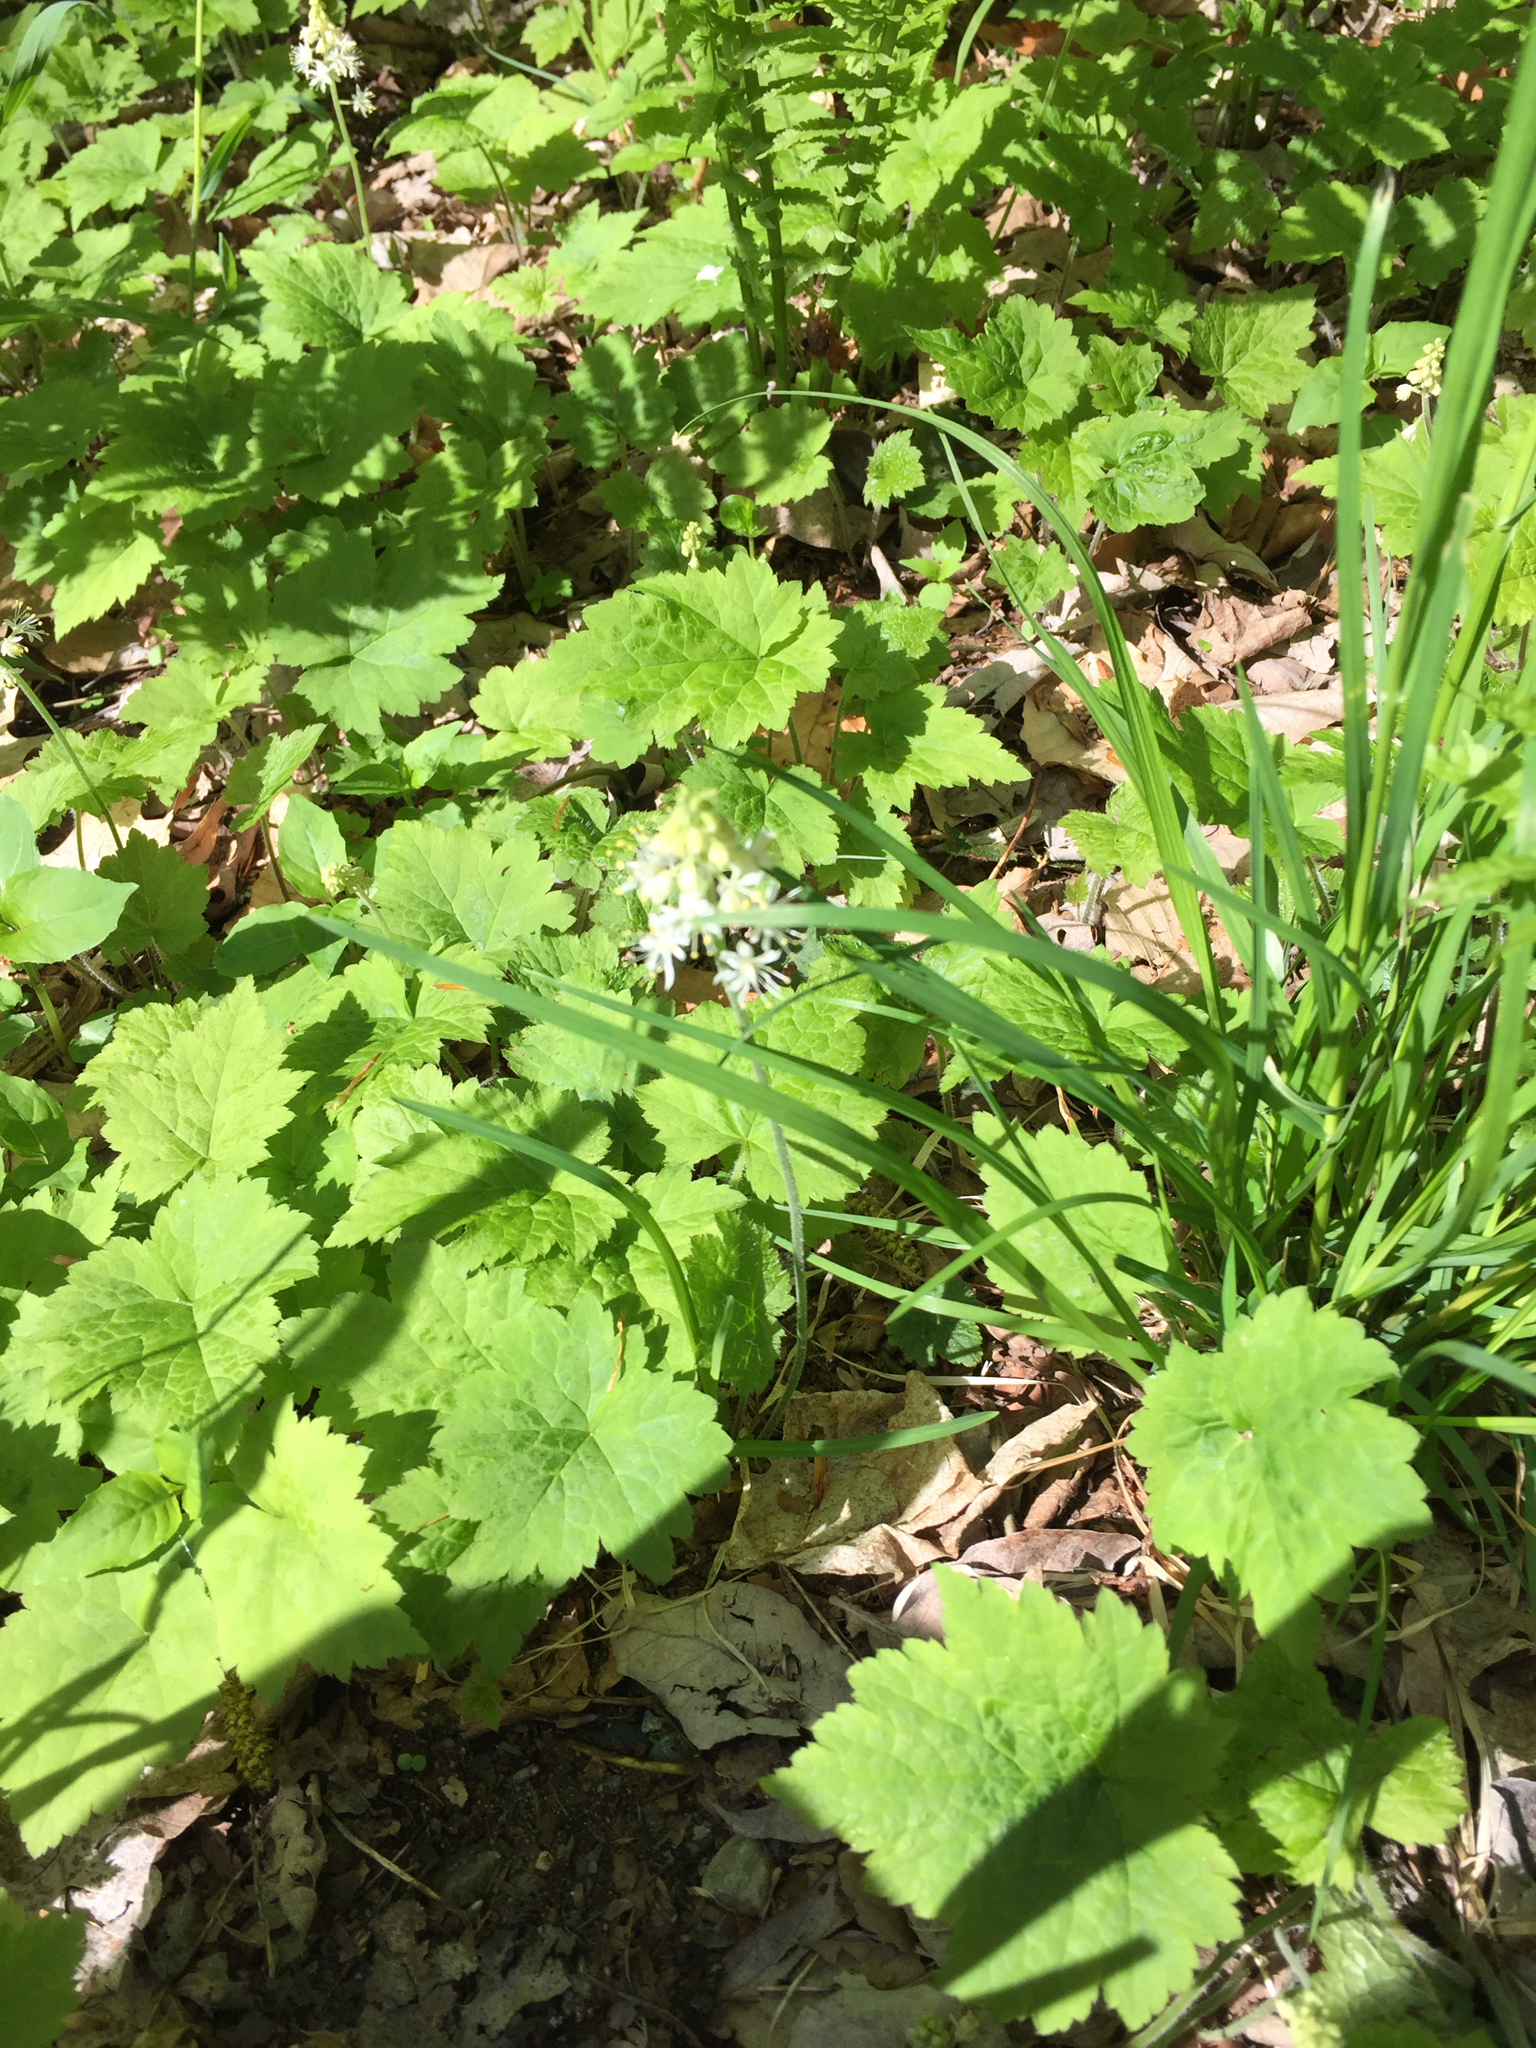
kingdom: Plantae
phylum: Tracheophyta
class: Magnoliopsida
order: Saxifragales
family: Saxifragaceae
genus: Tiarella
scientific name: Tiarella stolonifera
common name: Stoloniferous foamflower
